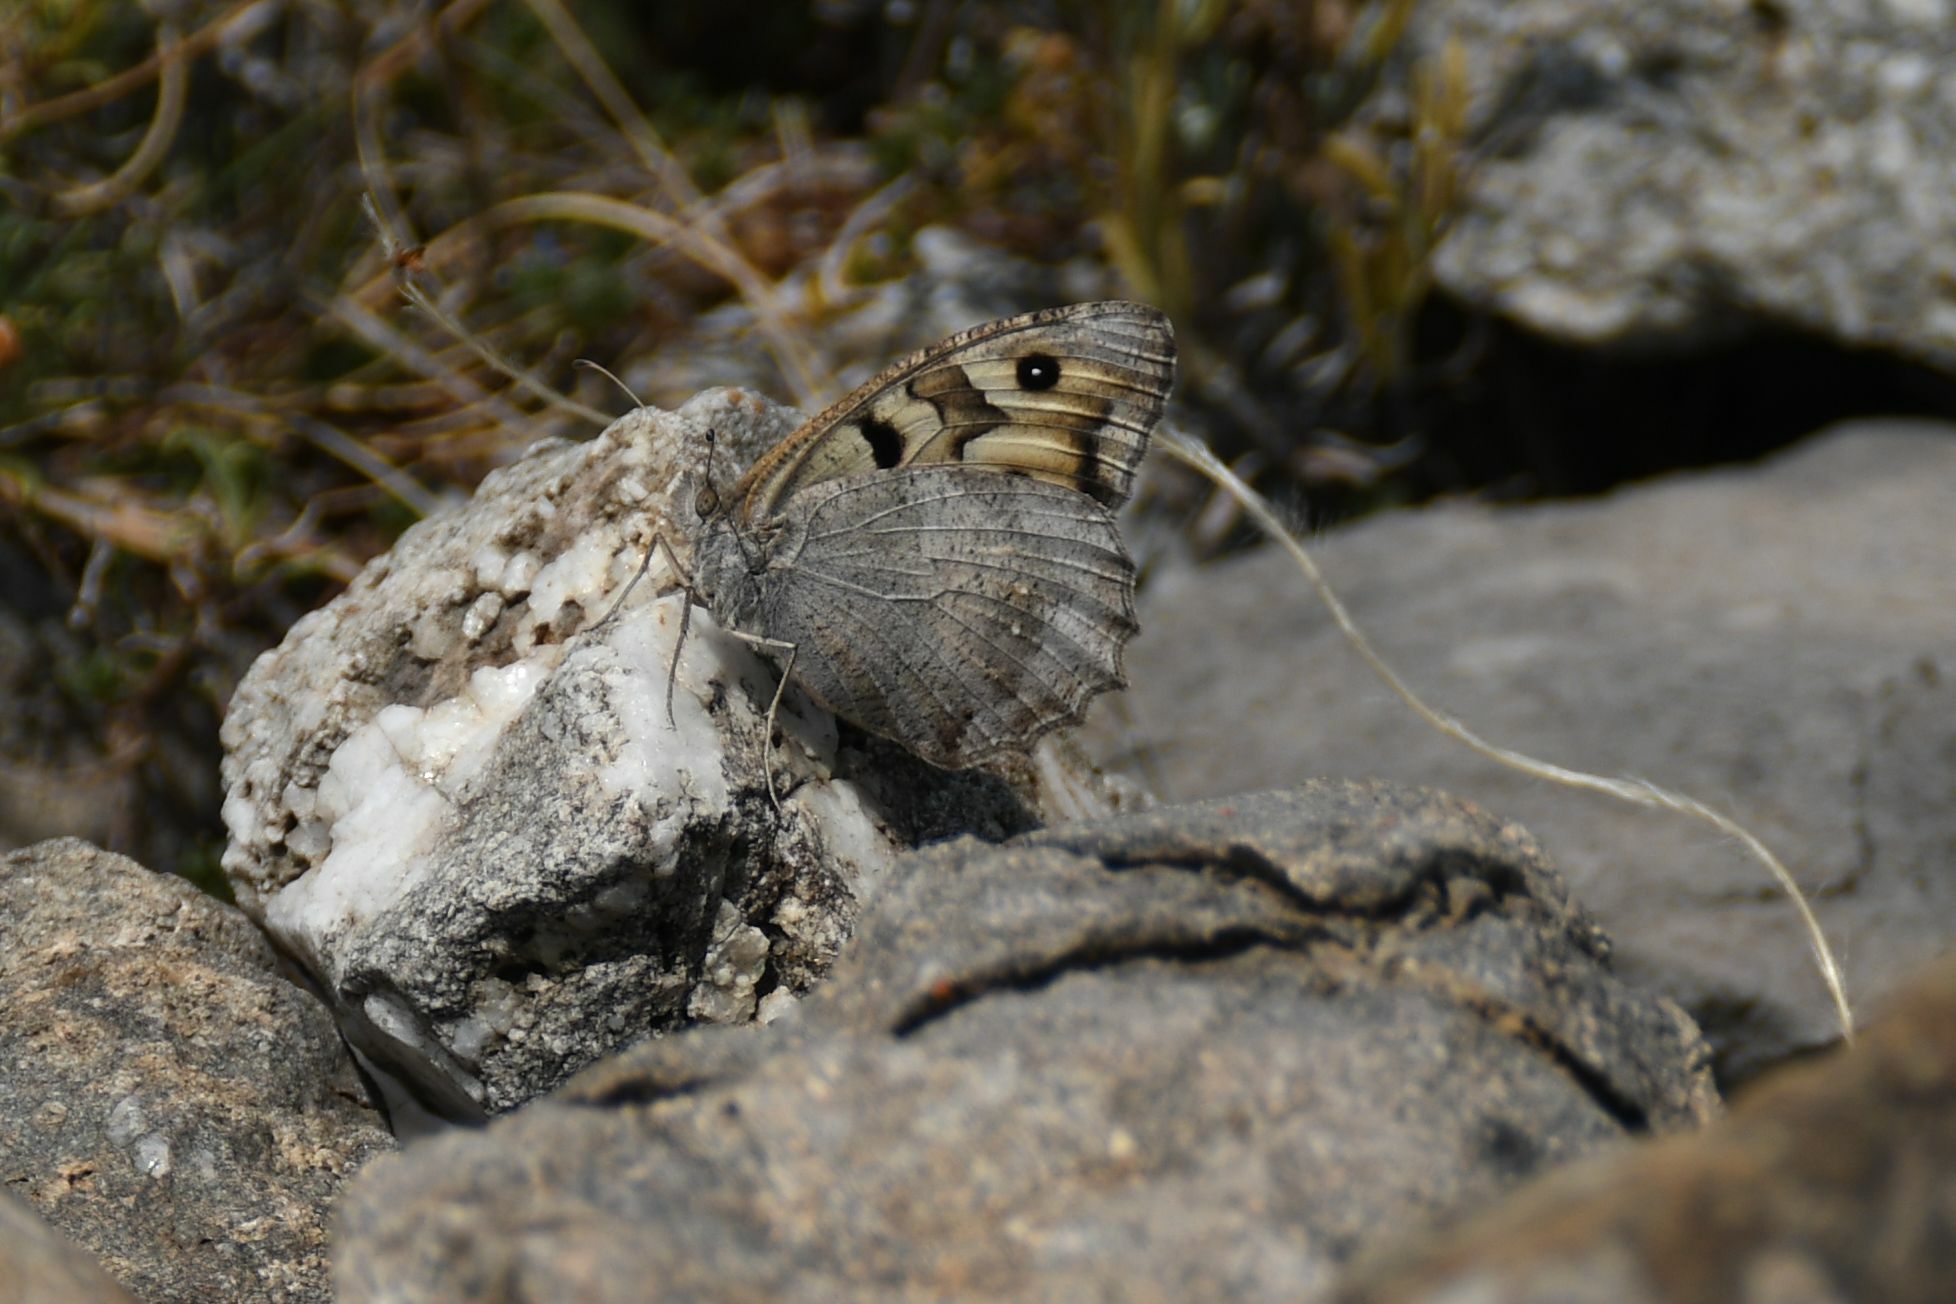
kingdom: Animalia
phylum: Arthropoda
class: Insecta
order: Lepidoptera
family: Nymphalidae
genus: Satyrus
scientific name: Satyrus briseis
